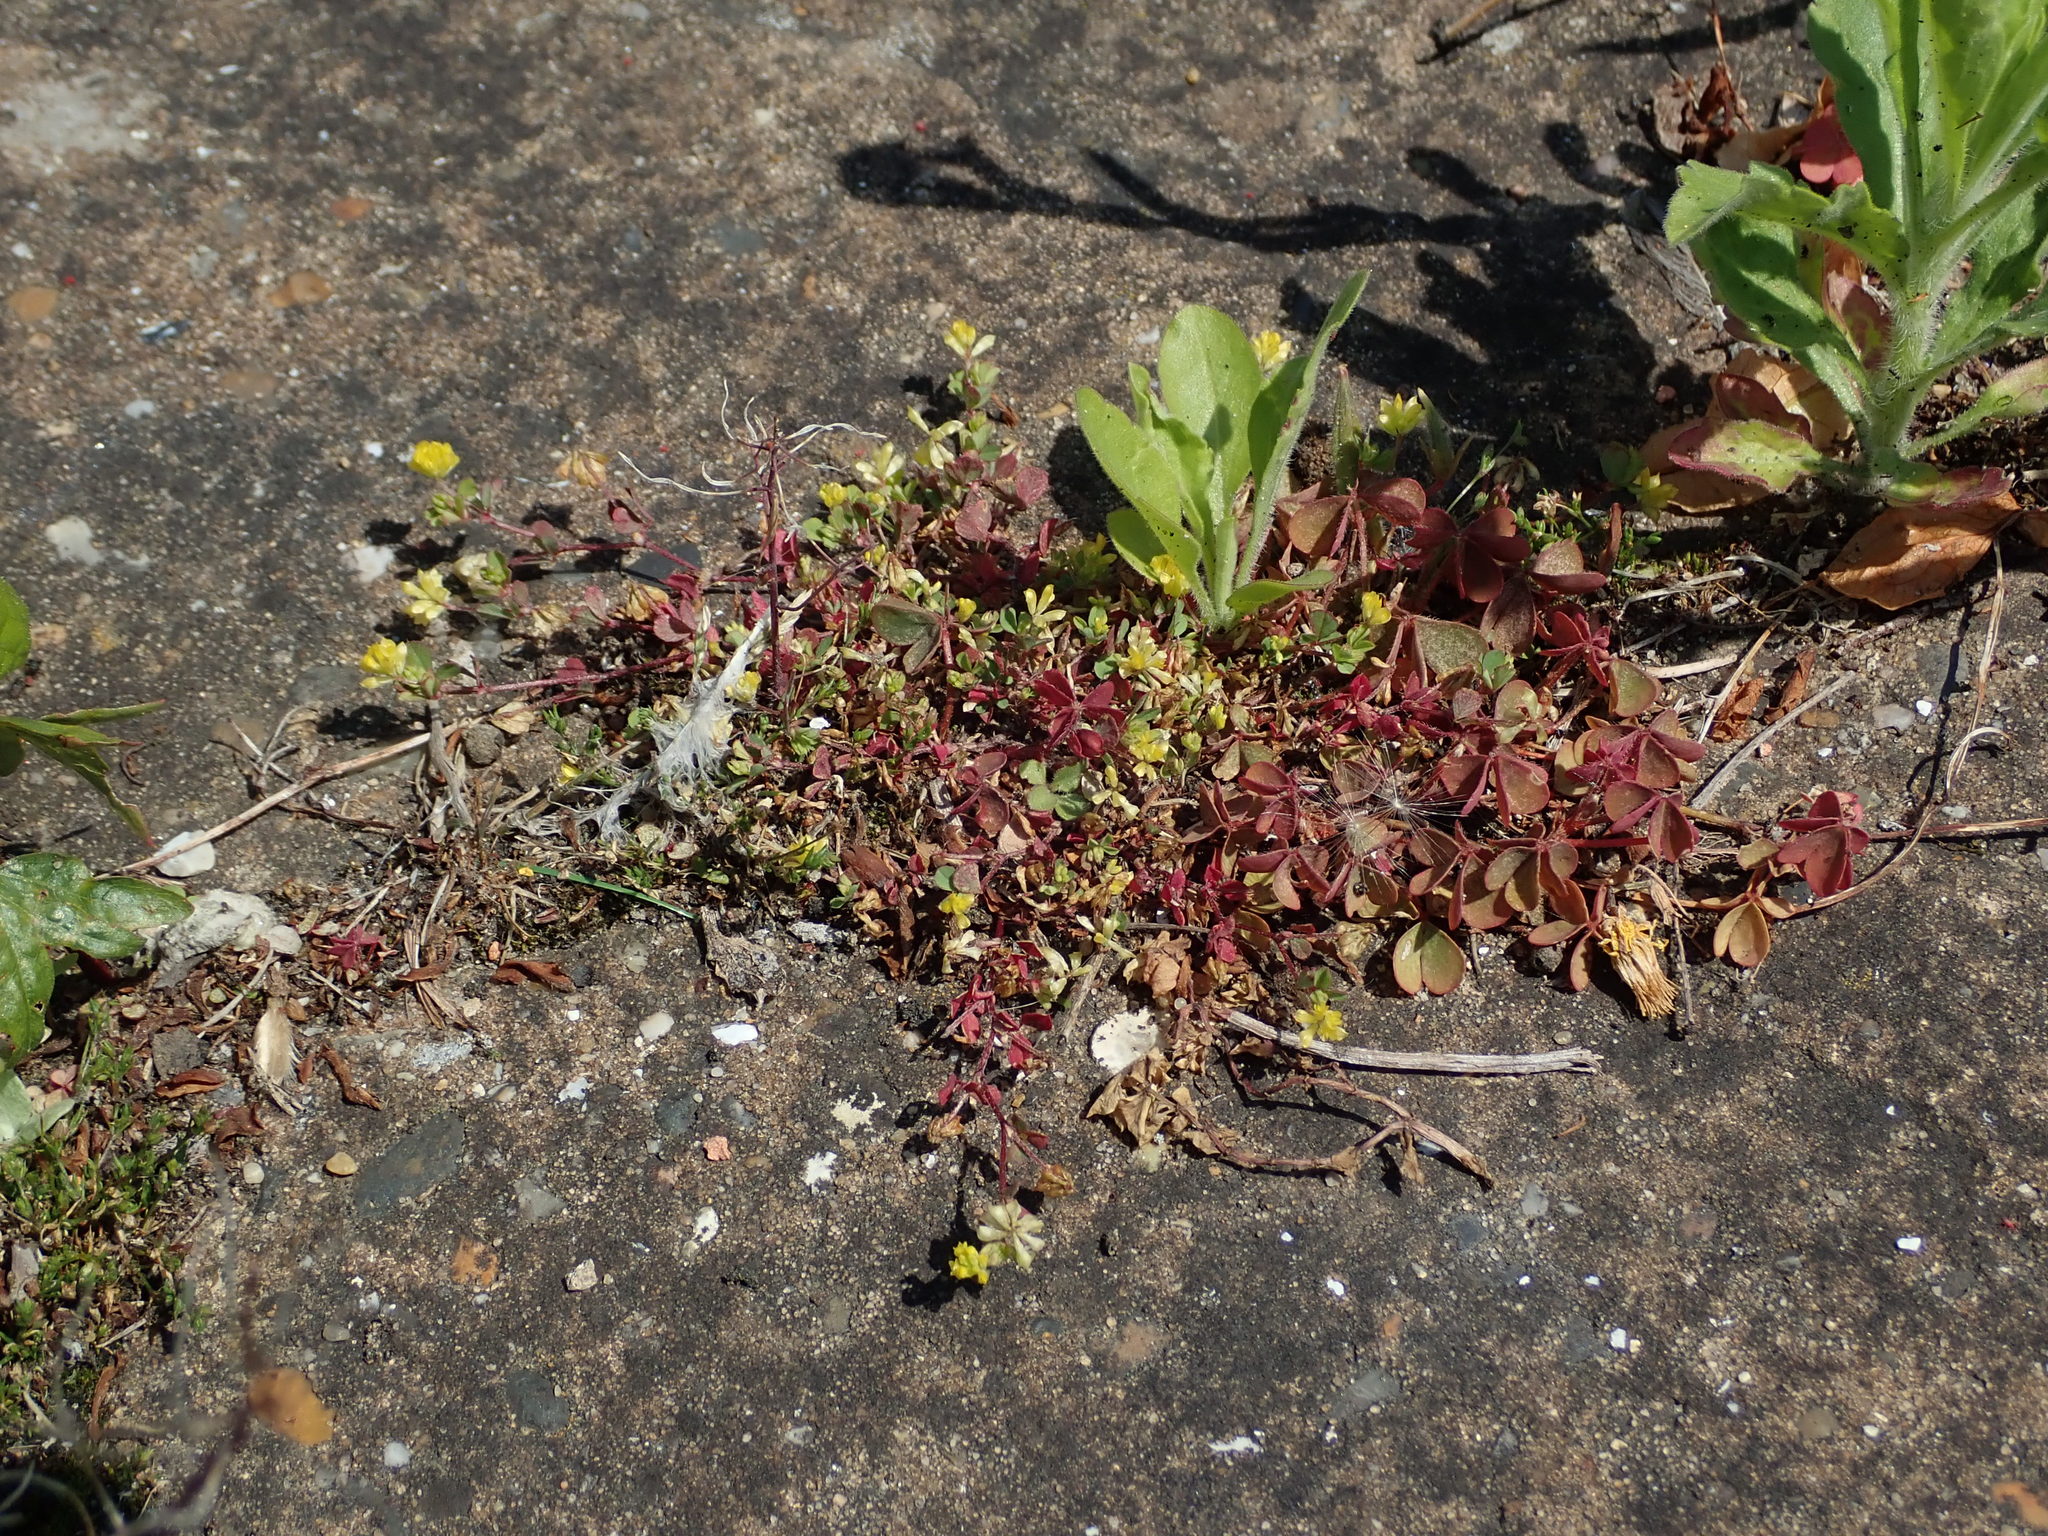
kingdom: Plantae
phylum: Tracheophyta
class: Magnoliopsida
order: Fabales
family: Fabaceae
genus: Trifolium
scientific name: Trifolium dubium
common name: Suckling clover
